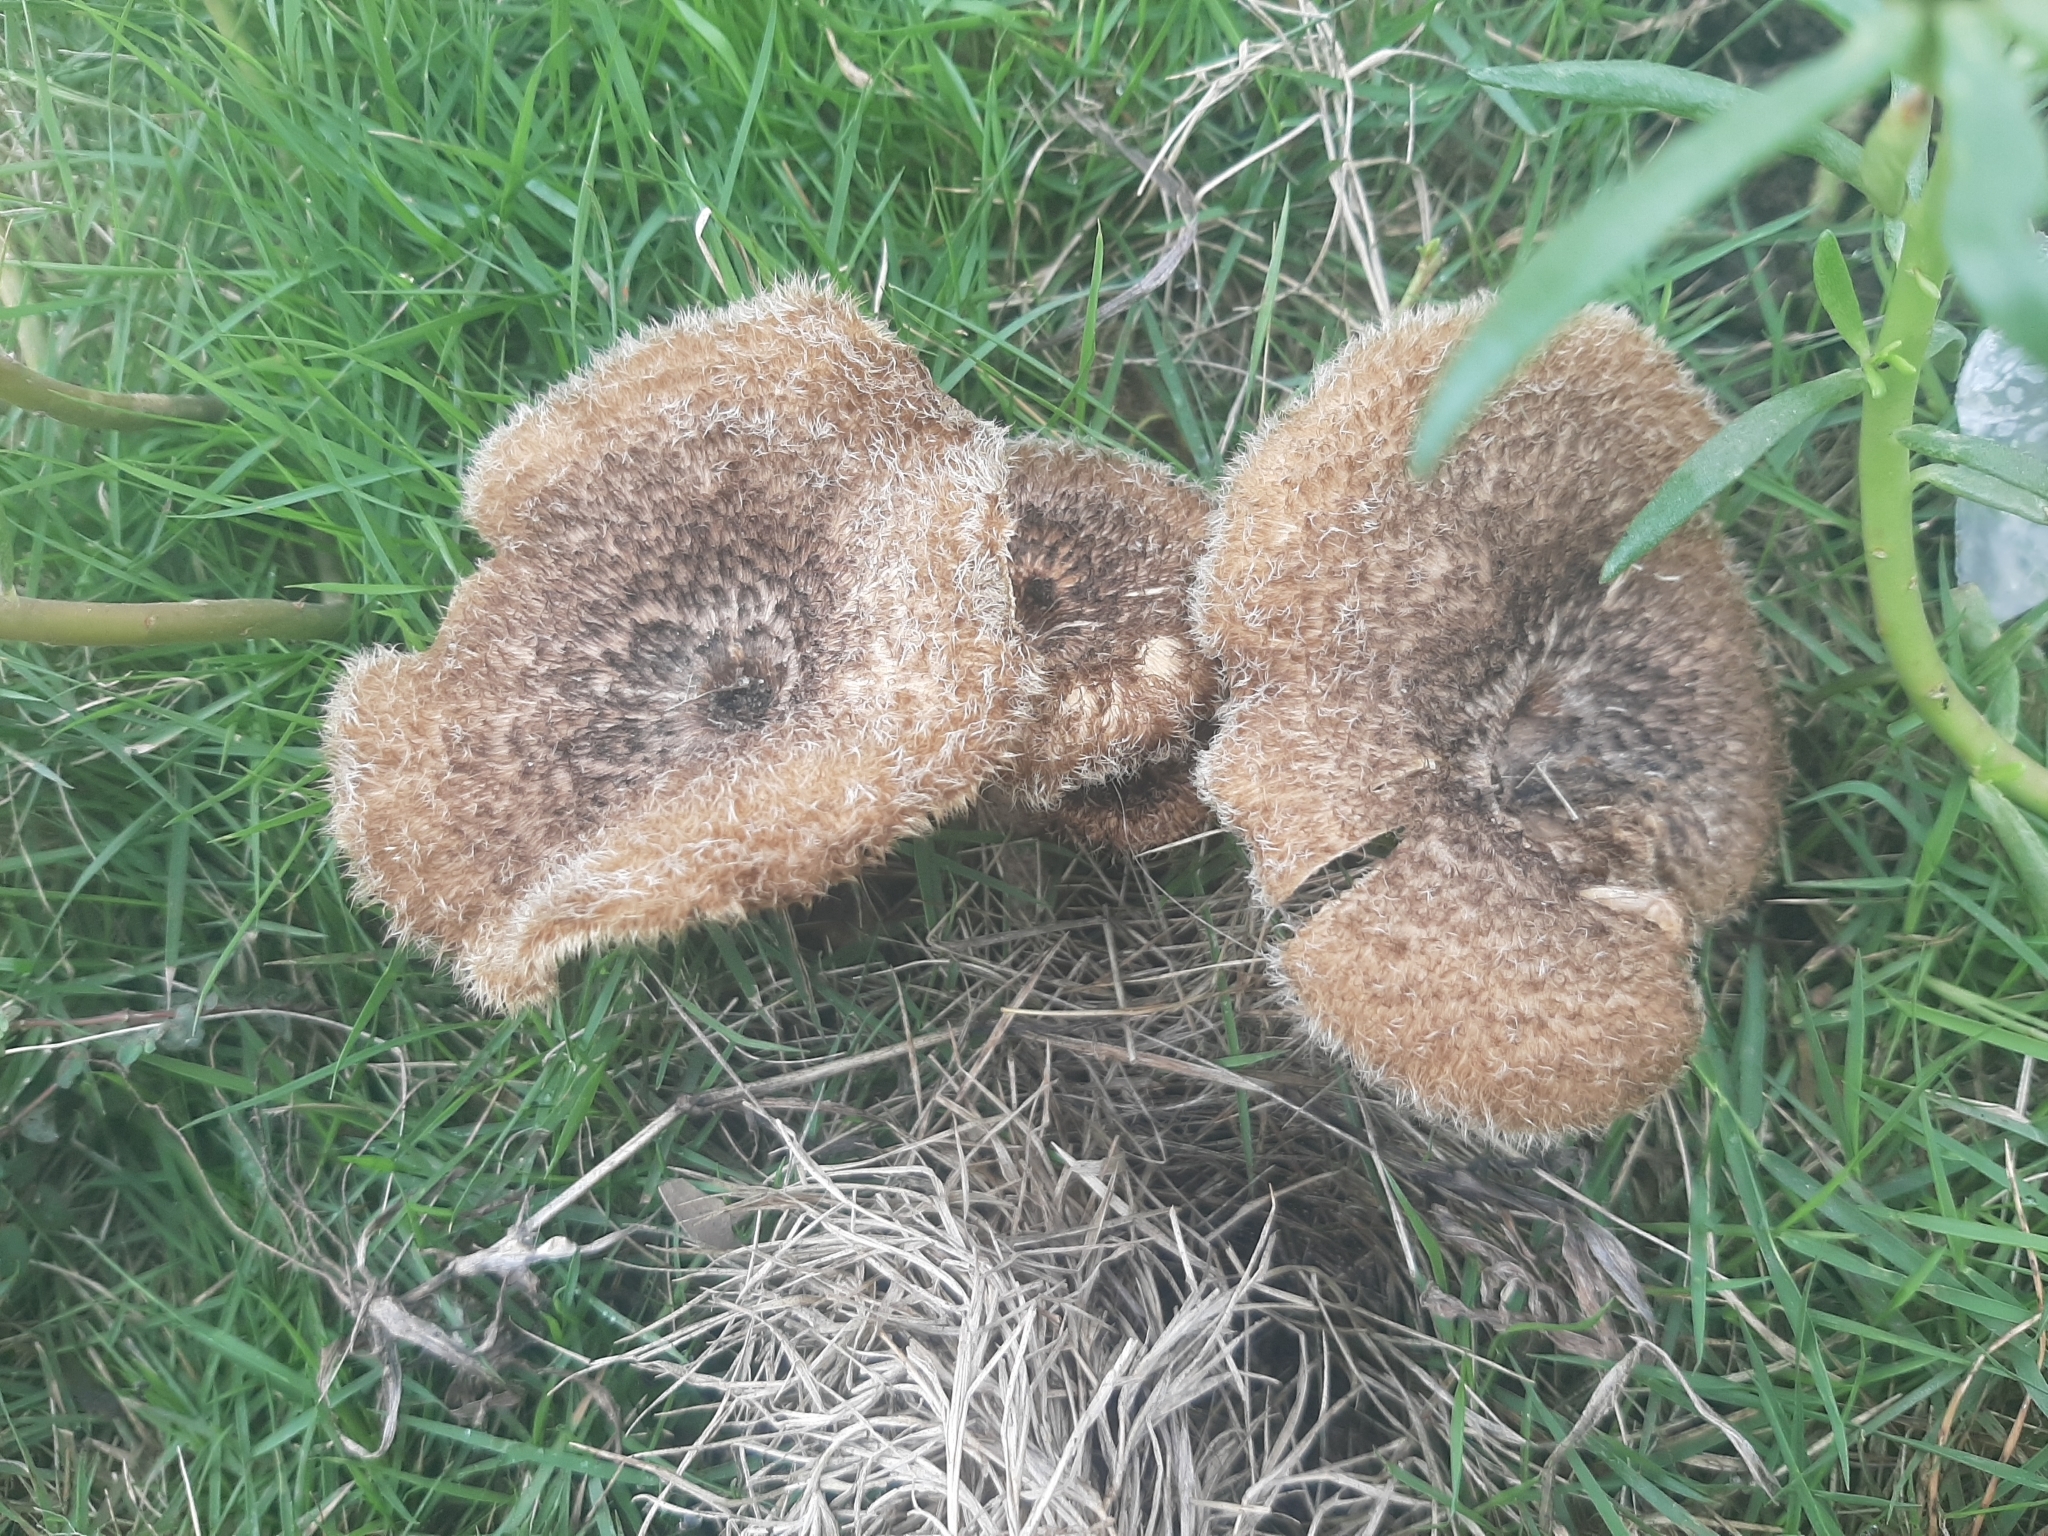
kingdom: Fungi
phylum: Basidiomycota
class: Agaricomycetes
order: Polyporales
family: Polyporaceae
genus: Lentinus
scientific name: Lentinus berteroi
